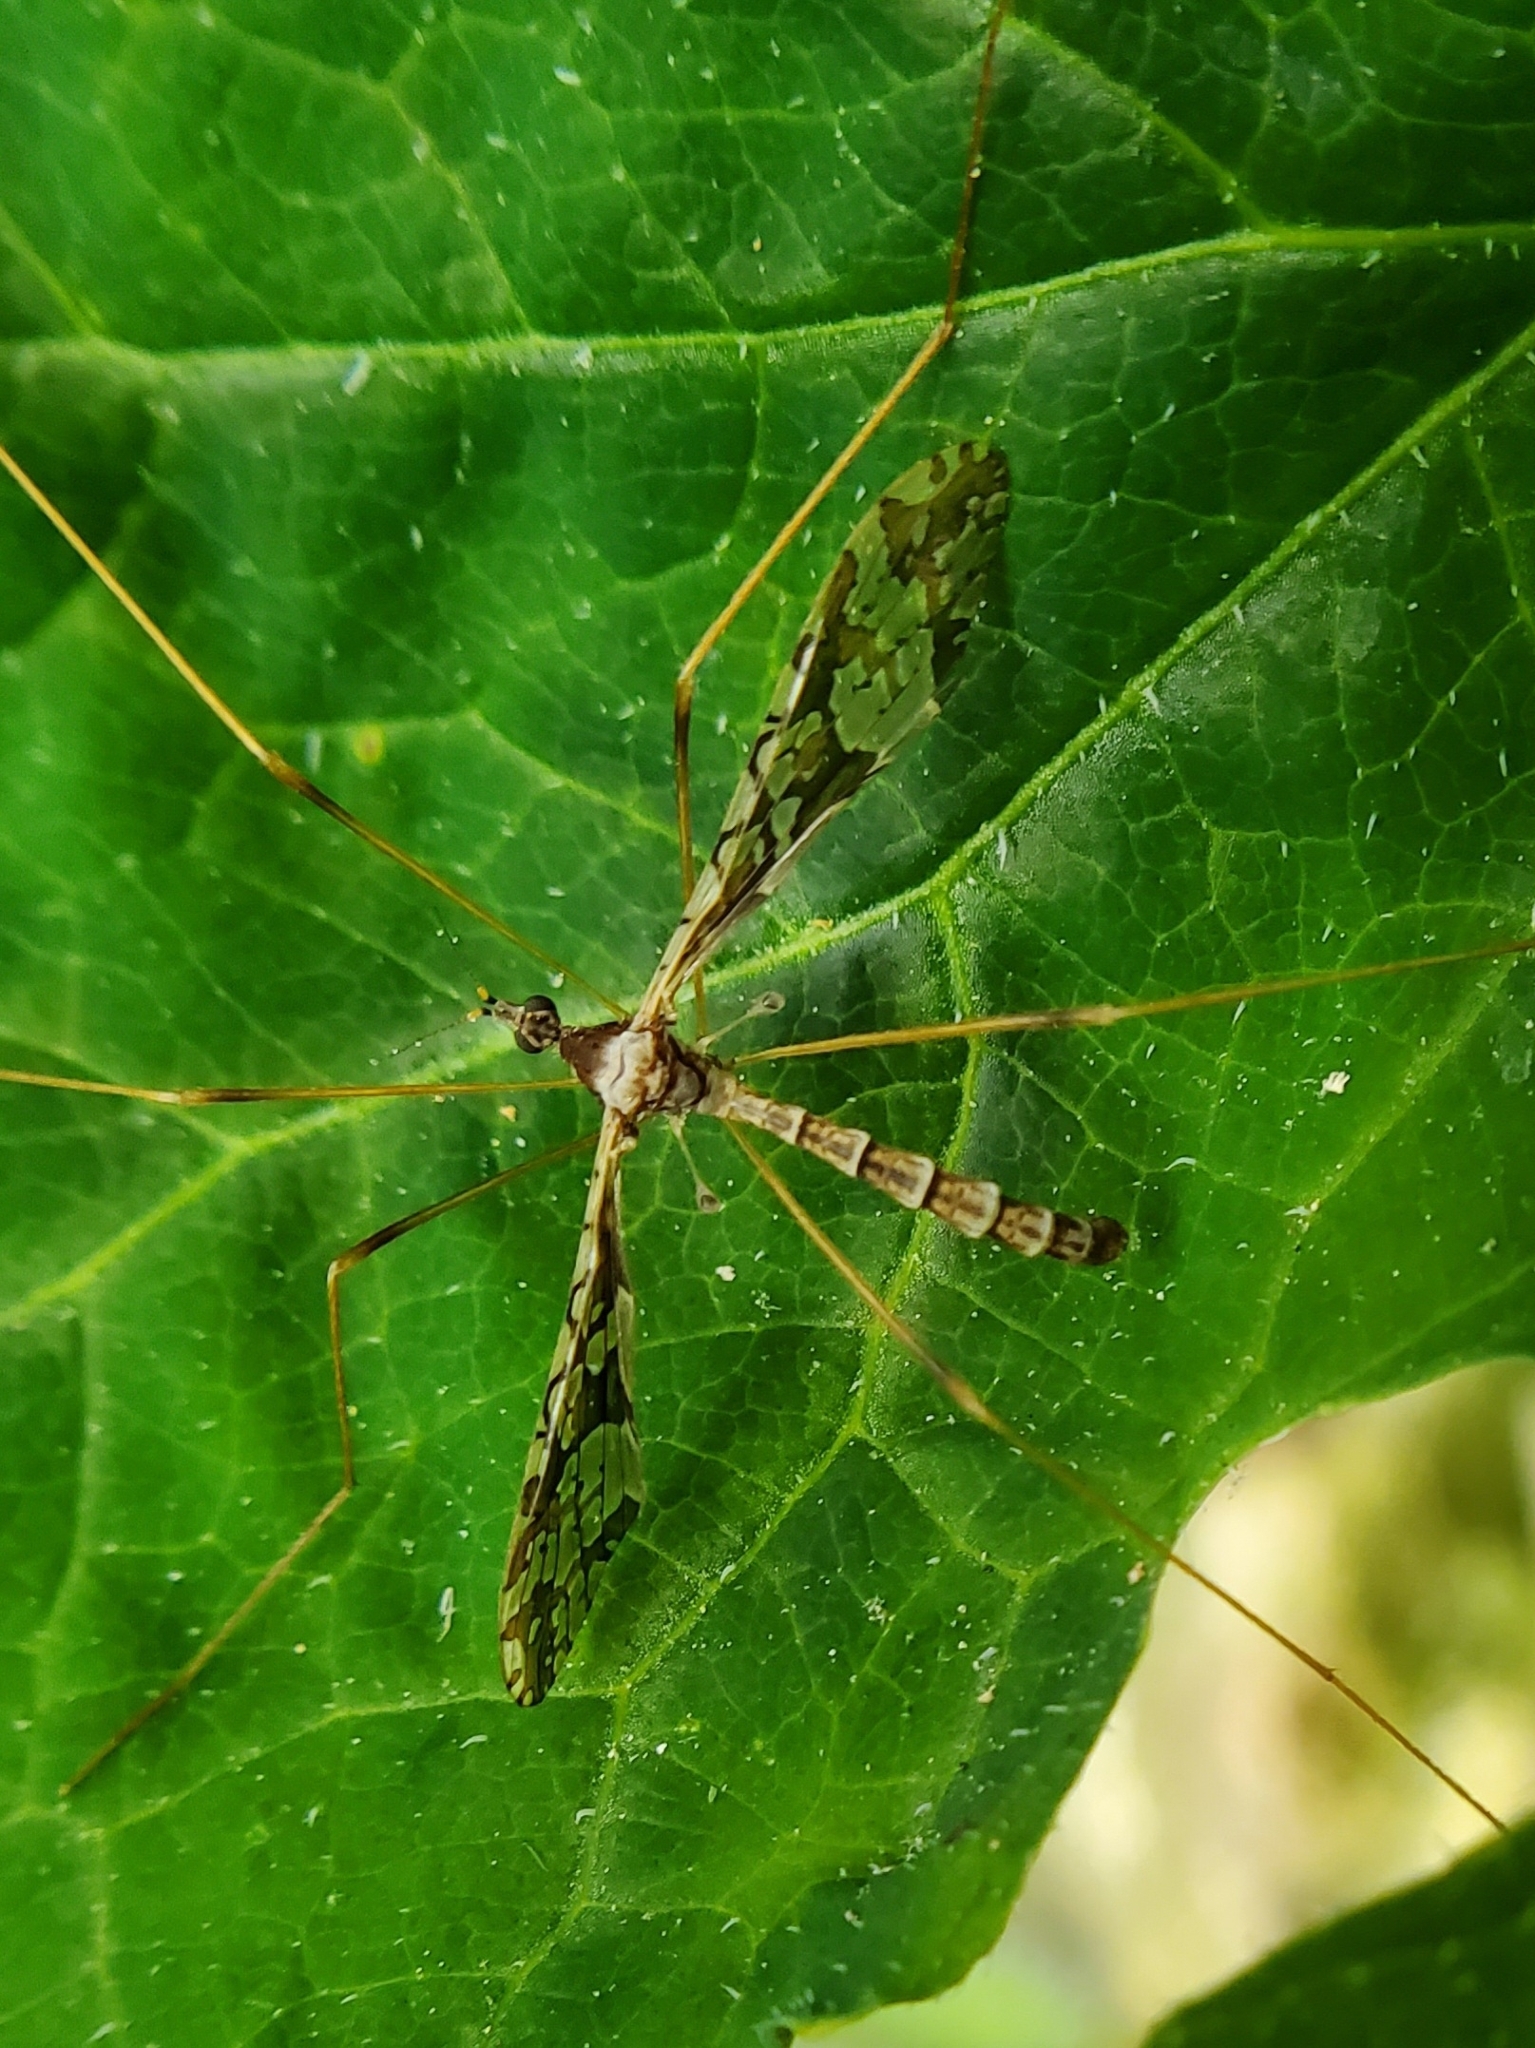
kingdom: Animalia
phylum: Arthropoda
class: Insecta
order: Diptera
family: Limoniidae
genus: Epiphragma
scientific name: Epiphragma solatrix
